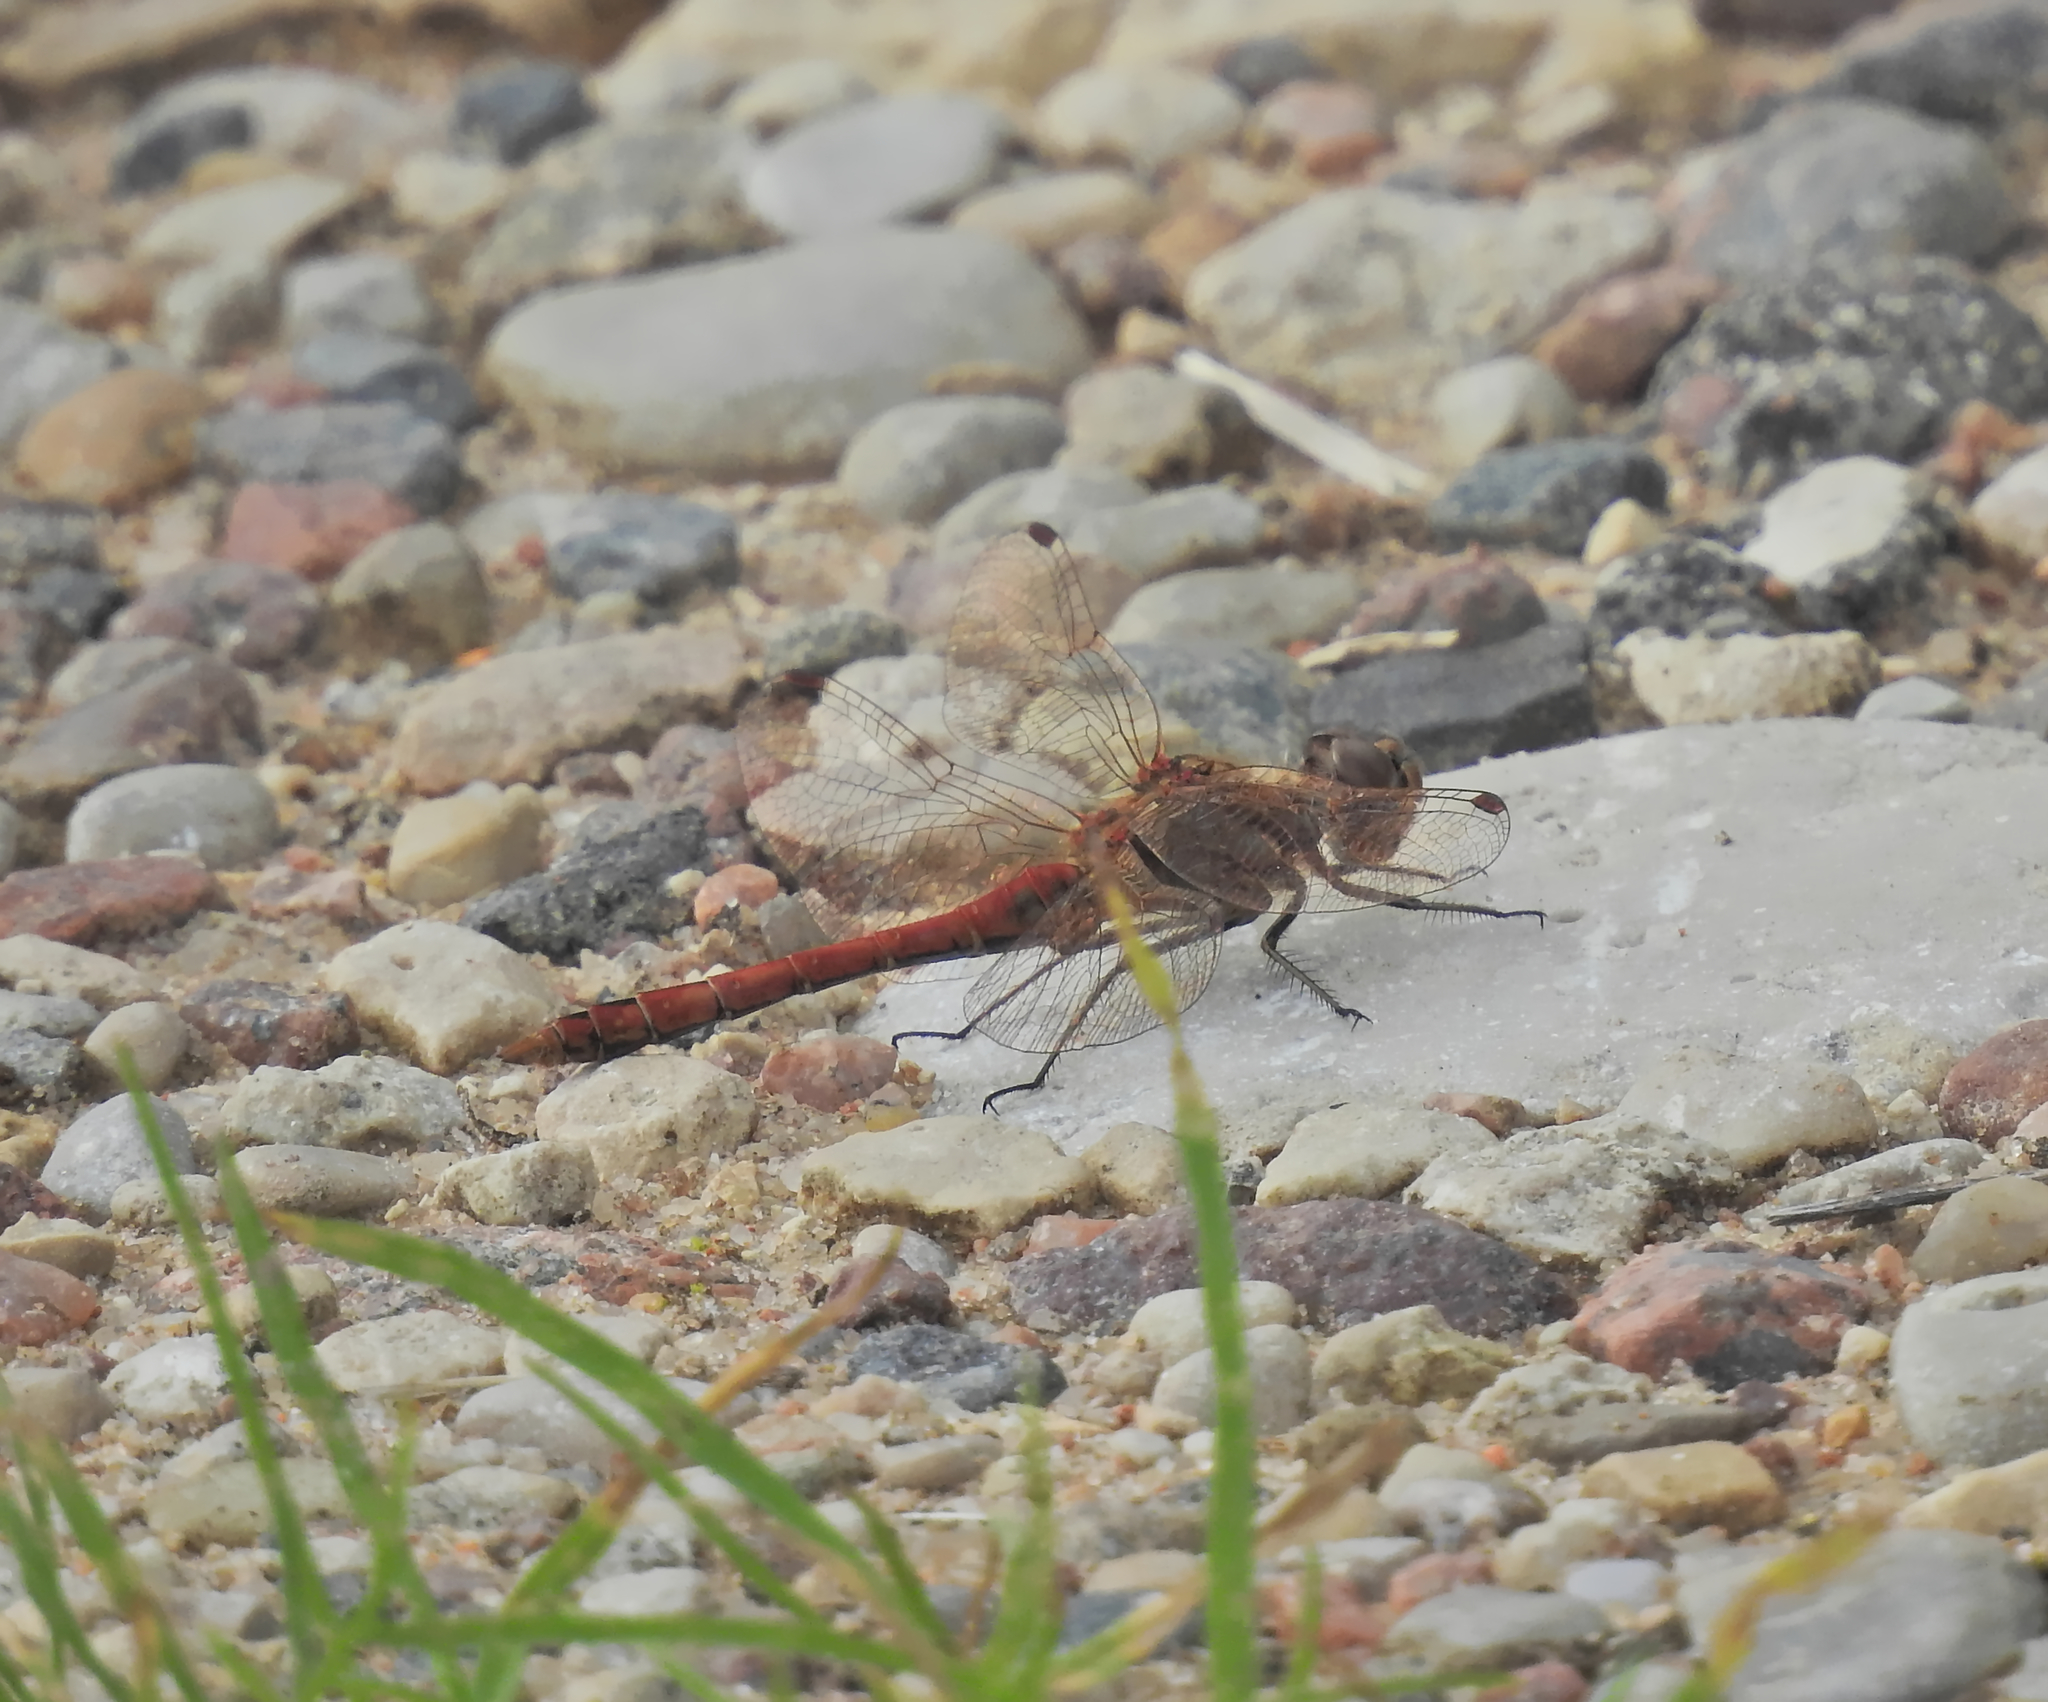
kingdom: Animalia
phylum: Arthropoda
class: Insecta
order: Odonata
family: Libellulidae
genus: Sympetrum
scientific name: Sympetrum vulgatum
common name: Vagrant darter
